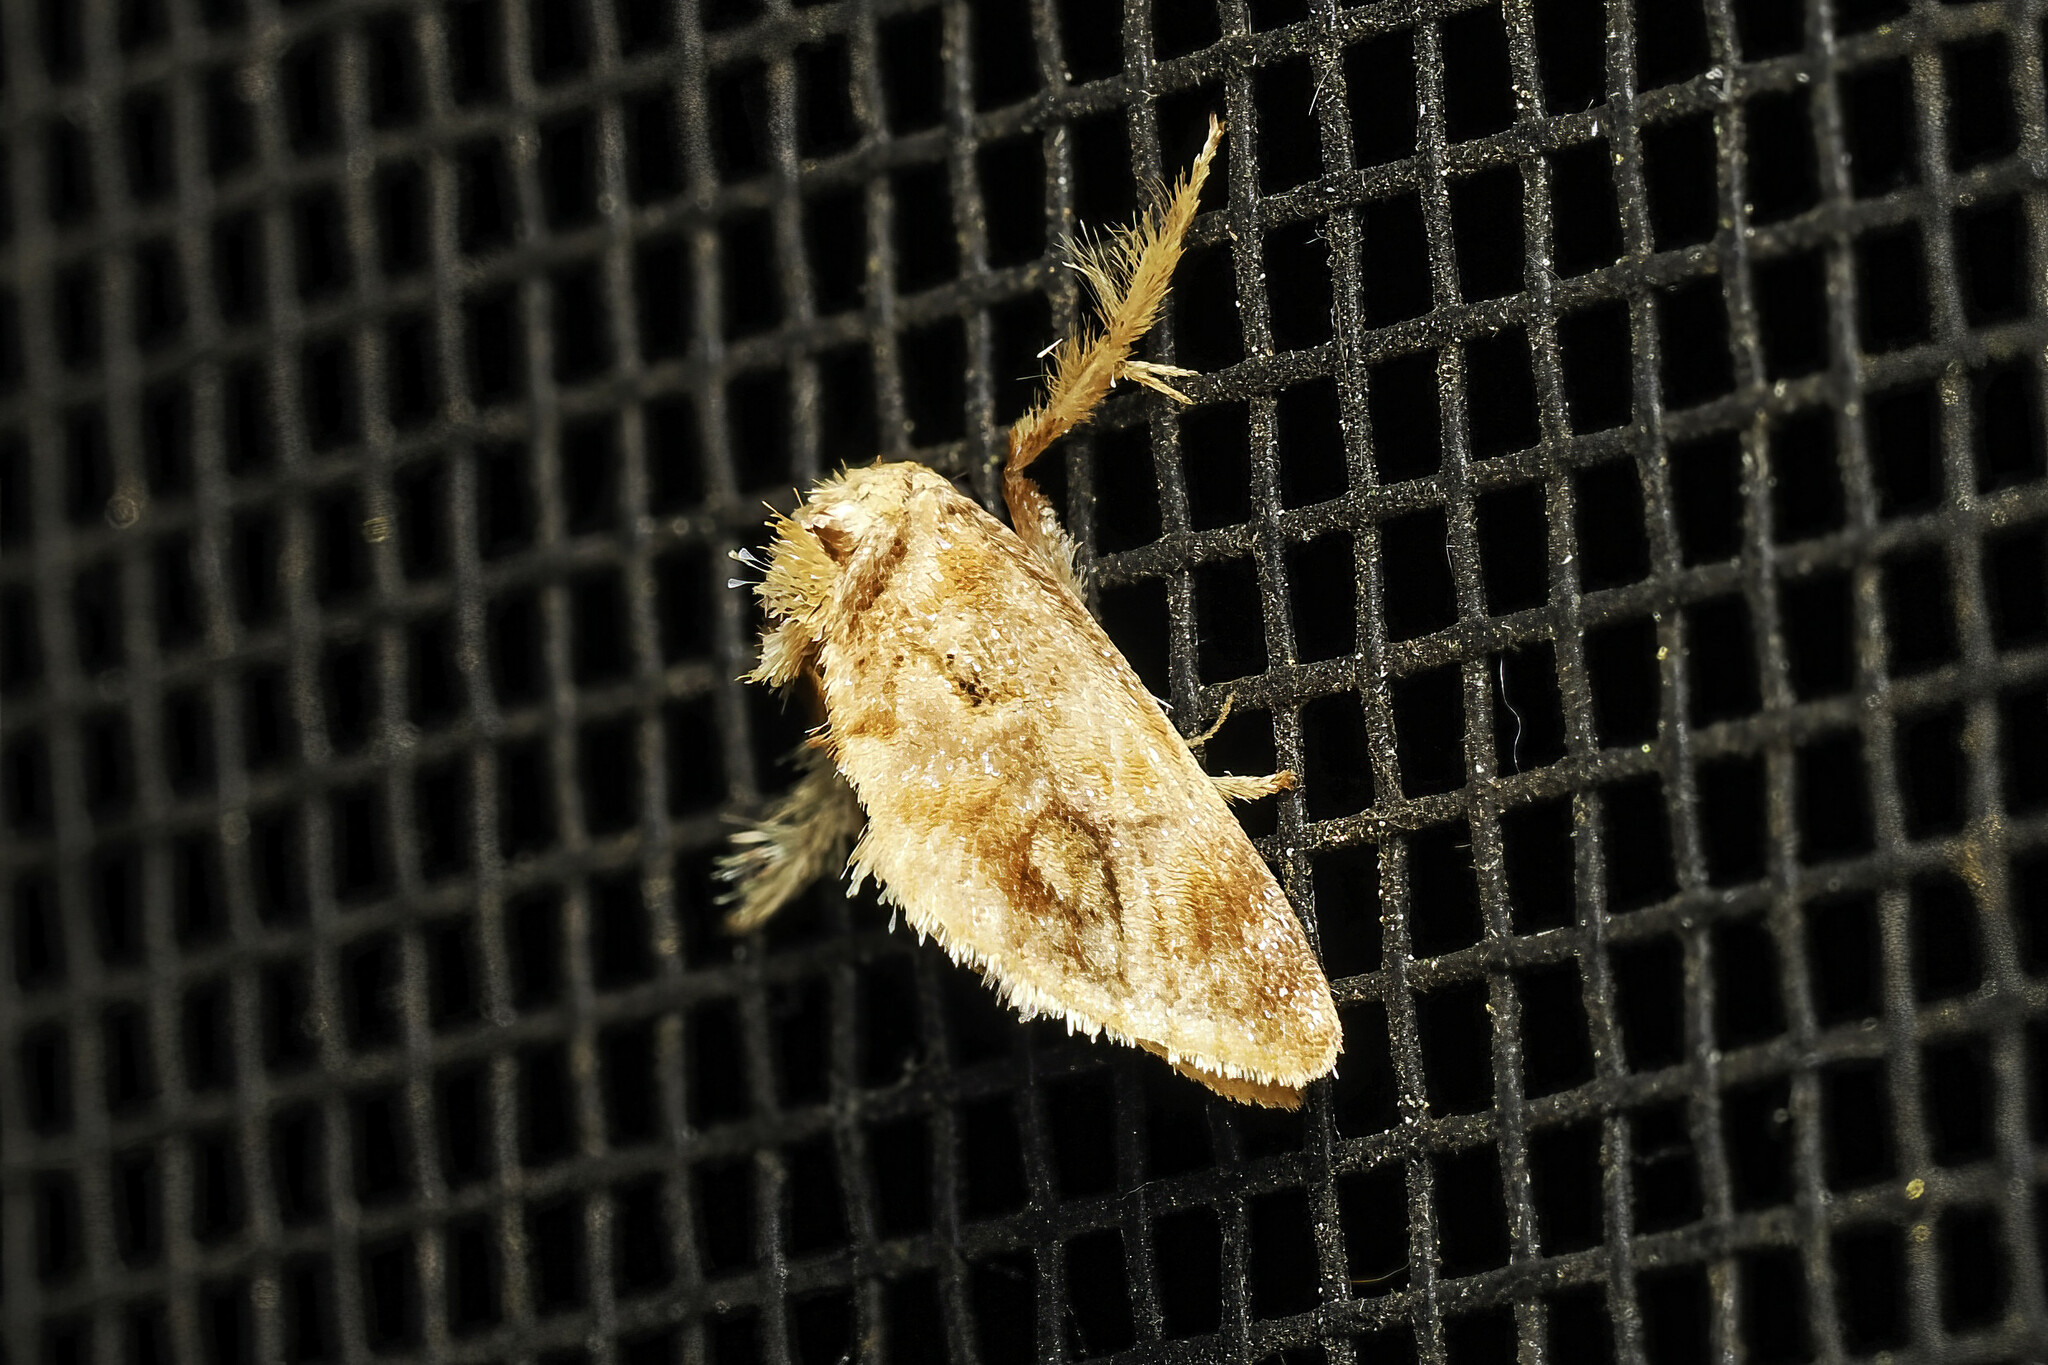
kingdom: Animalia
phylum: Arthropoda
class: Insecta
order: Lepidoptera
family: Limacodidae
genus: Isochaetes
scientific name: Isochaetes beutenmuelleri
